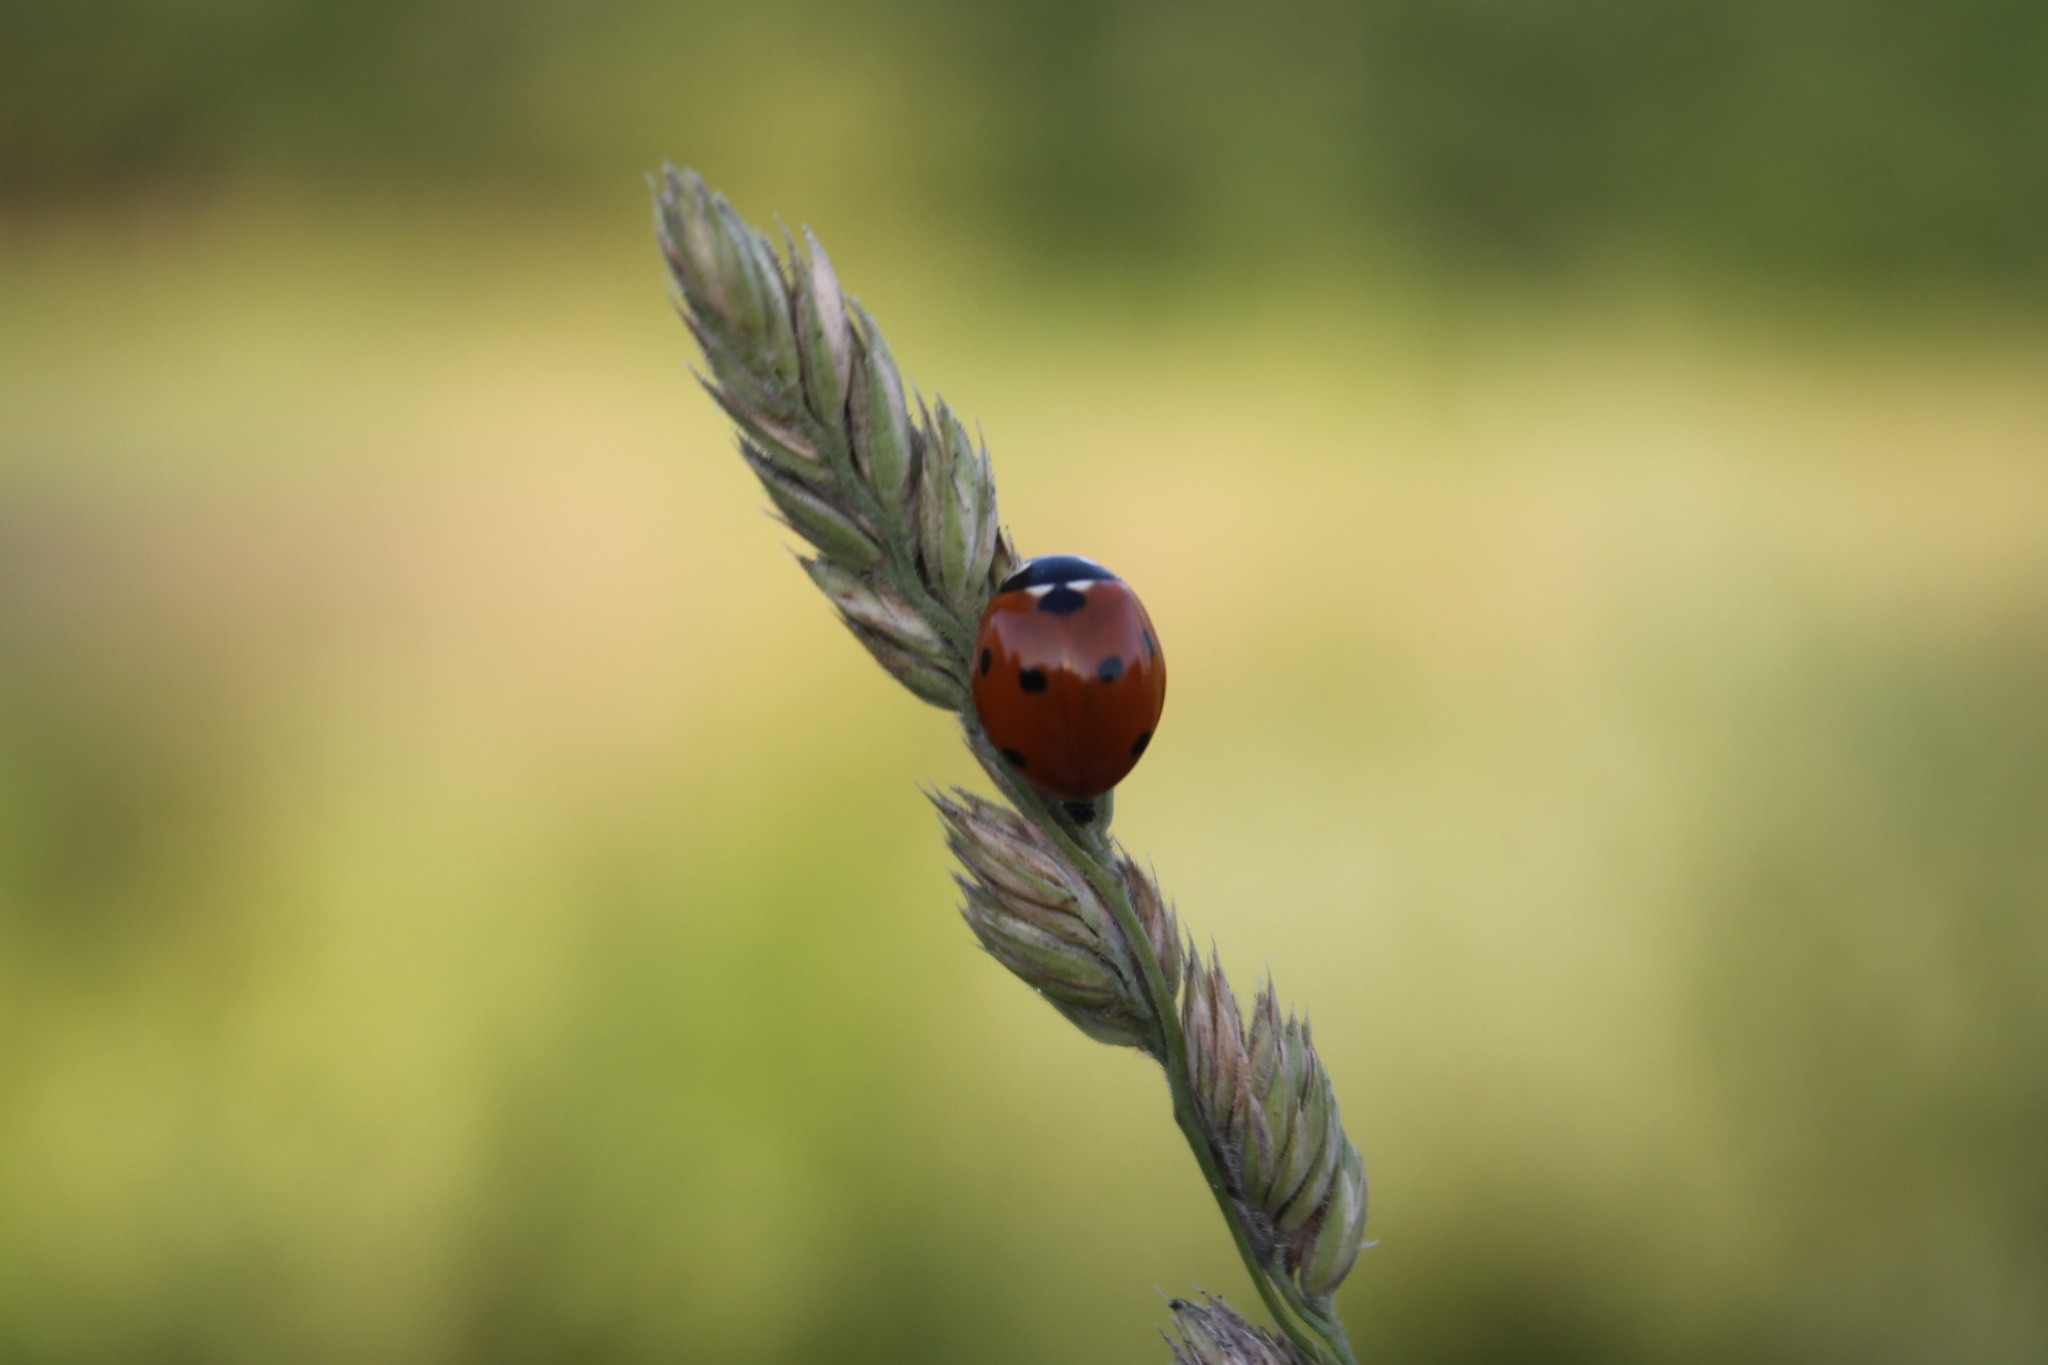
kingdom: Animalia
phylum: Arthropoda
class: Insecta
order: Coleoptera
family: Coccinellidae
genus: Coccinella
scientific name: Coccinella septempunctata
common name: Sevenspotted lady beetle
